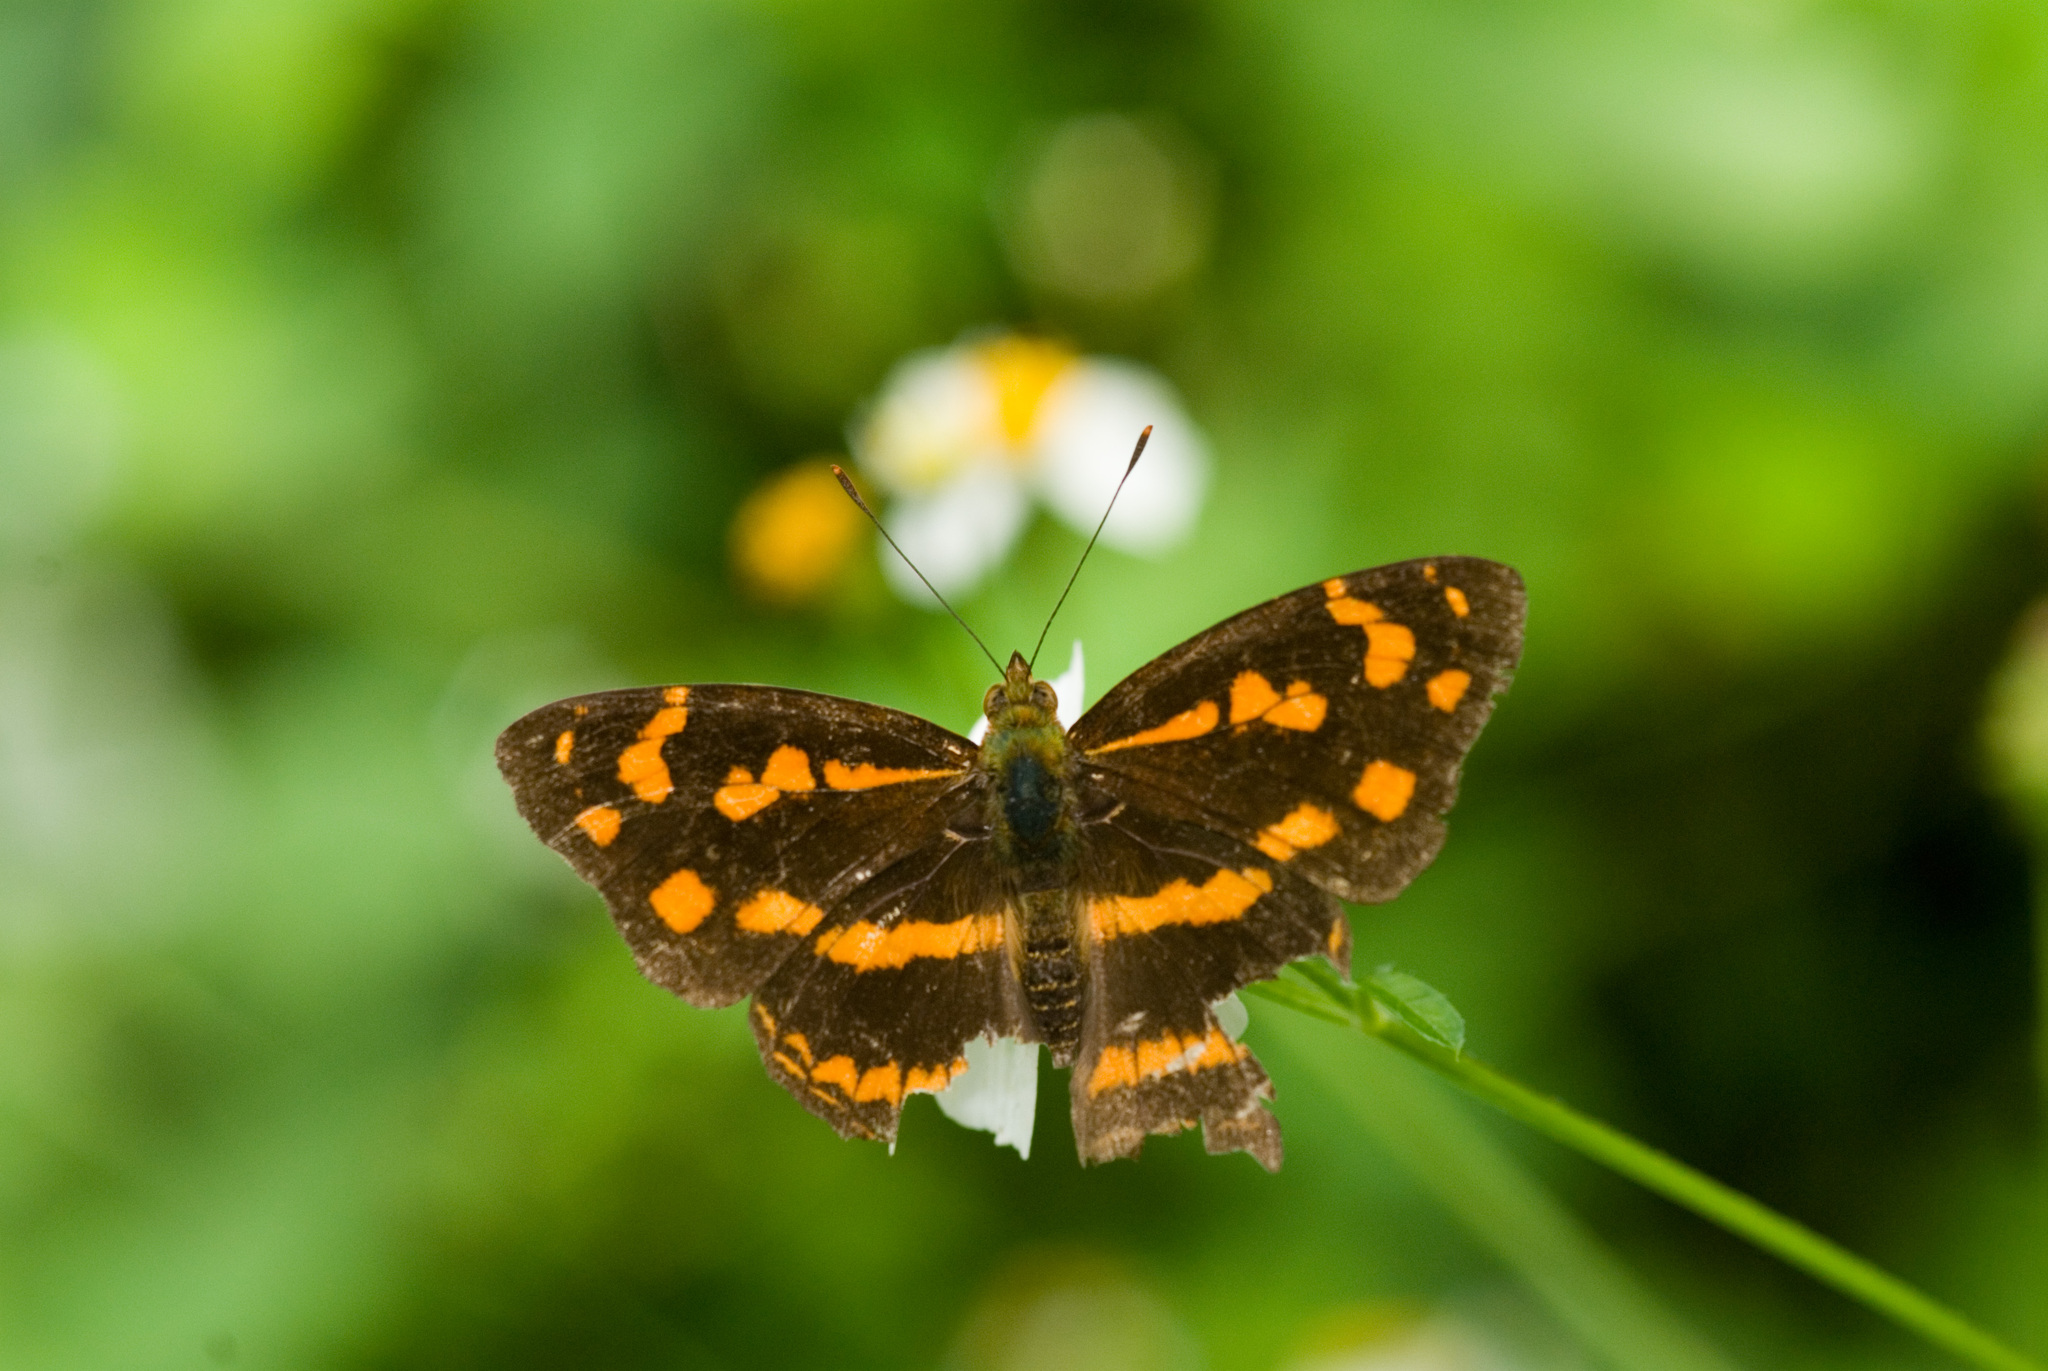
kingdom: Animalia
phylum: Arthropoda
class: Insecta
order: Lepidoptera
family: Nymphalidae
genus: Symbrenthia
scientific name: Symbrenthia hypselis
